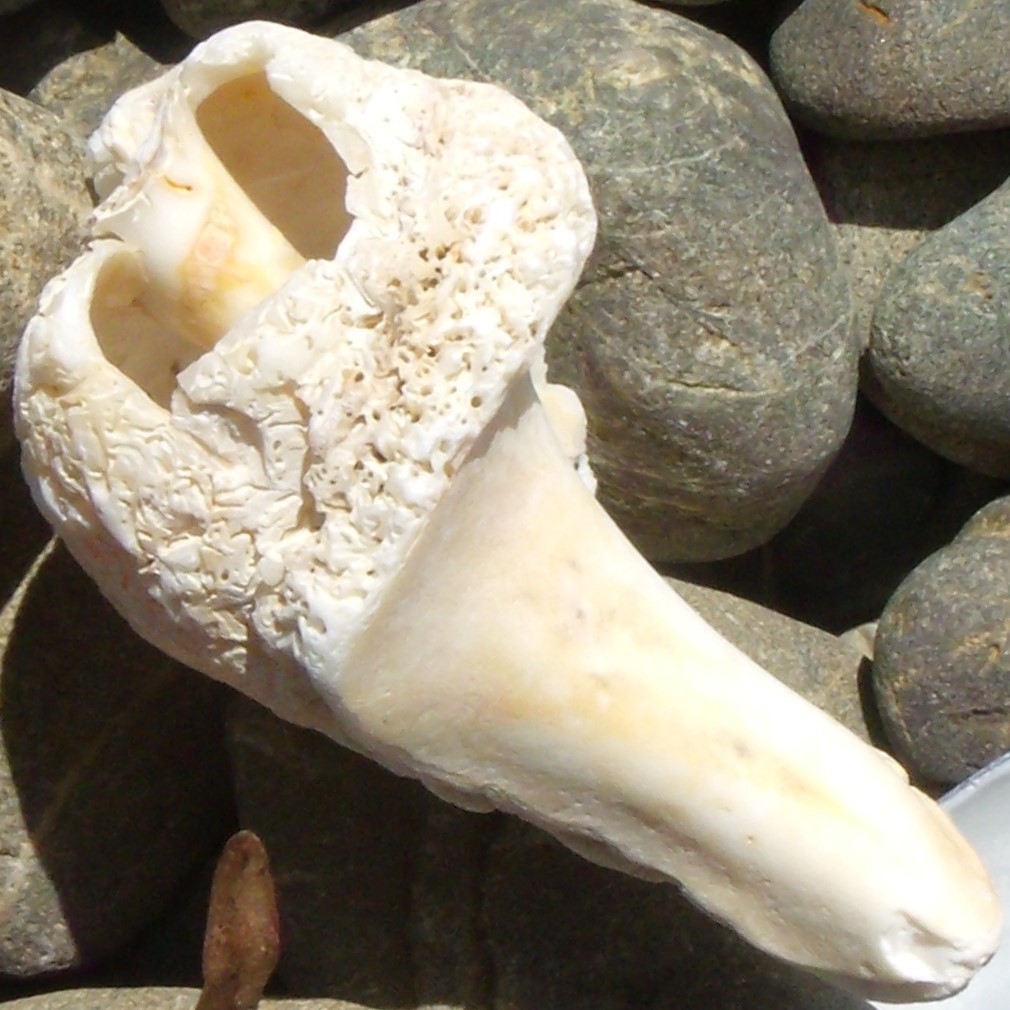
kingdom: Animalia
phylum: Mollusca
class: Gastropoda
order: Neogastropoda
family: Muricidae
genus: Dicathais
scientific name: Dicathais orbita
